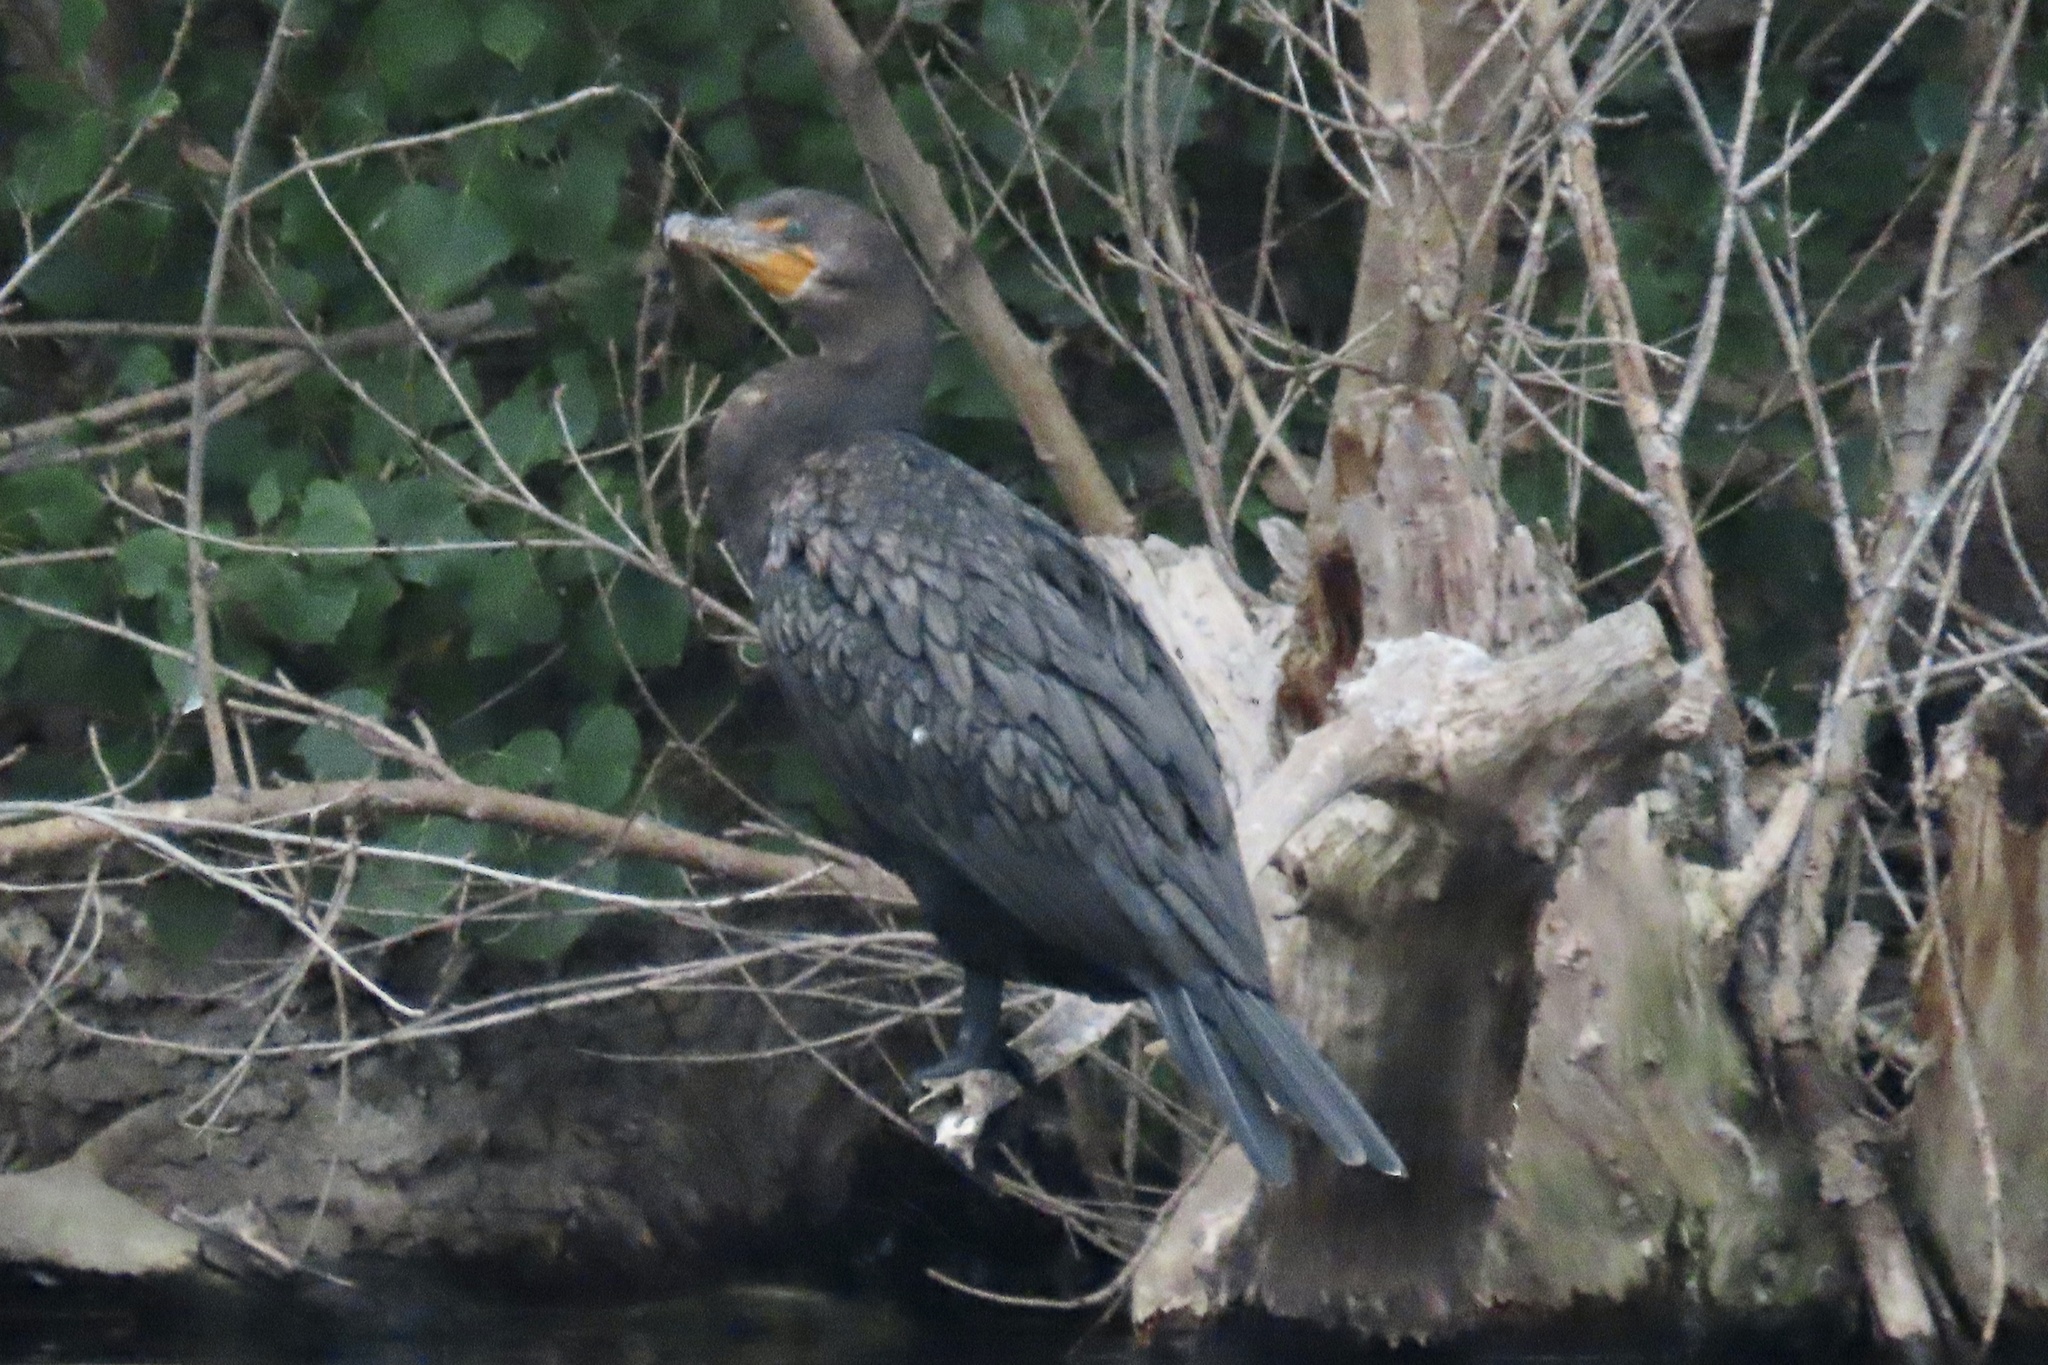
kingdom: Animalia
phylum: Chordata
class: Aves
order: Suliformes
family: Phalacrocoracidae
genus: Phalacrocorax
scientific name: Phalacrocorax auritus
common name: Double-crested cormorant
